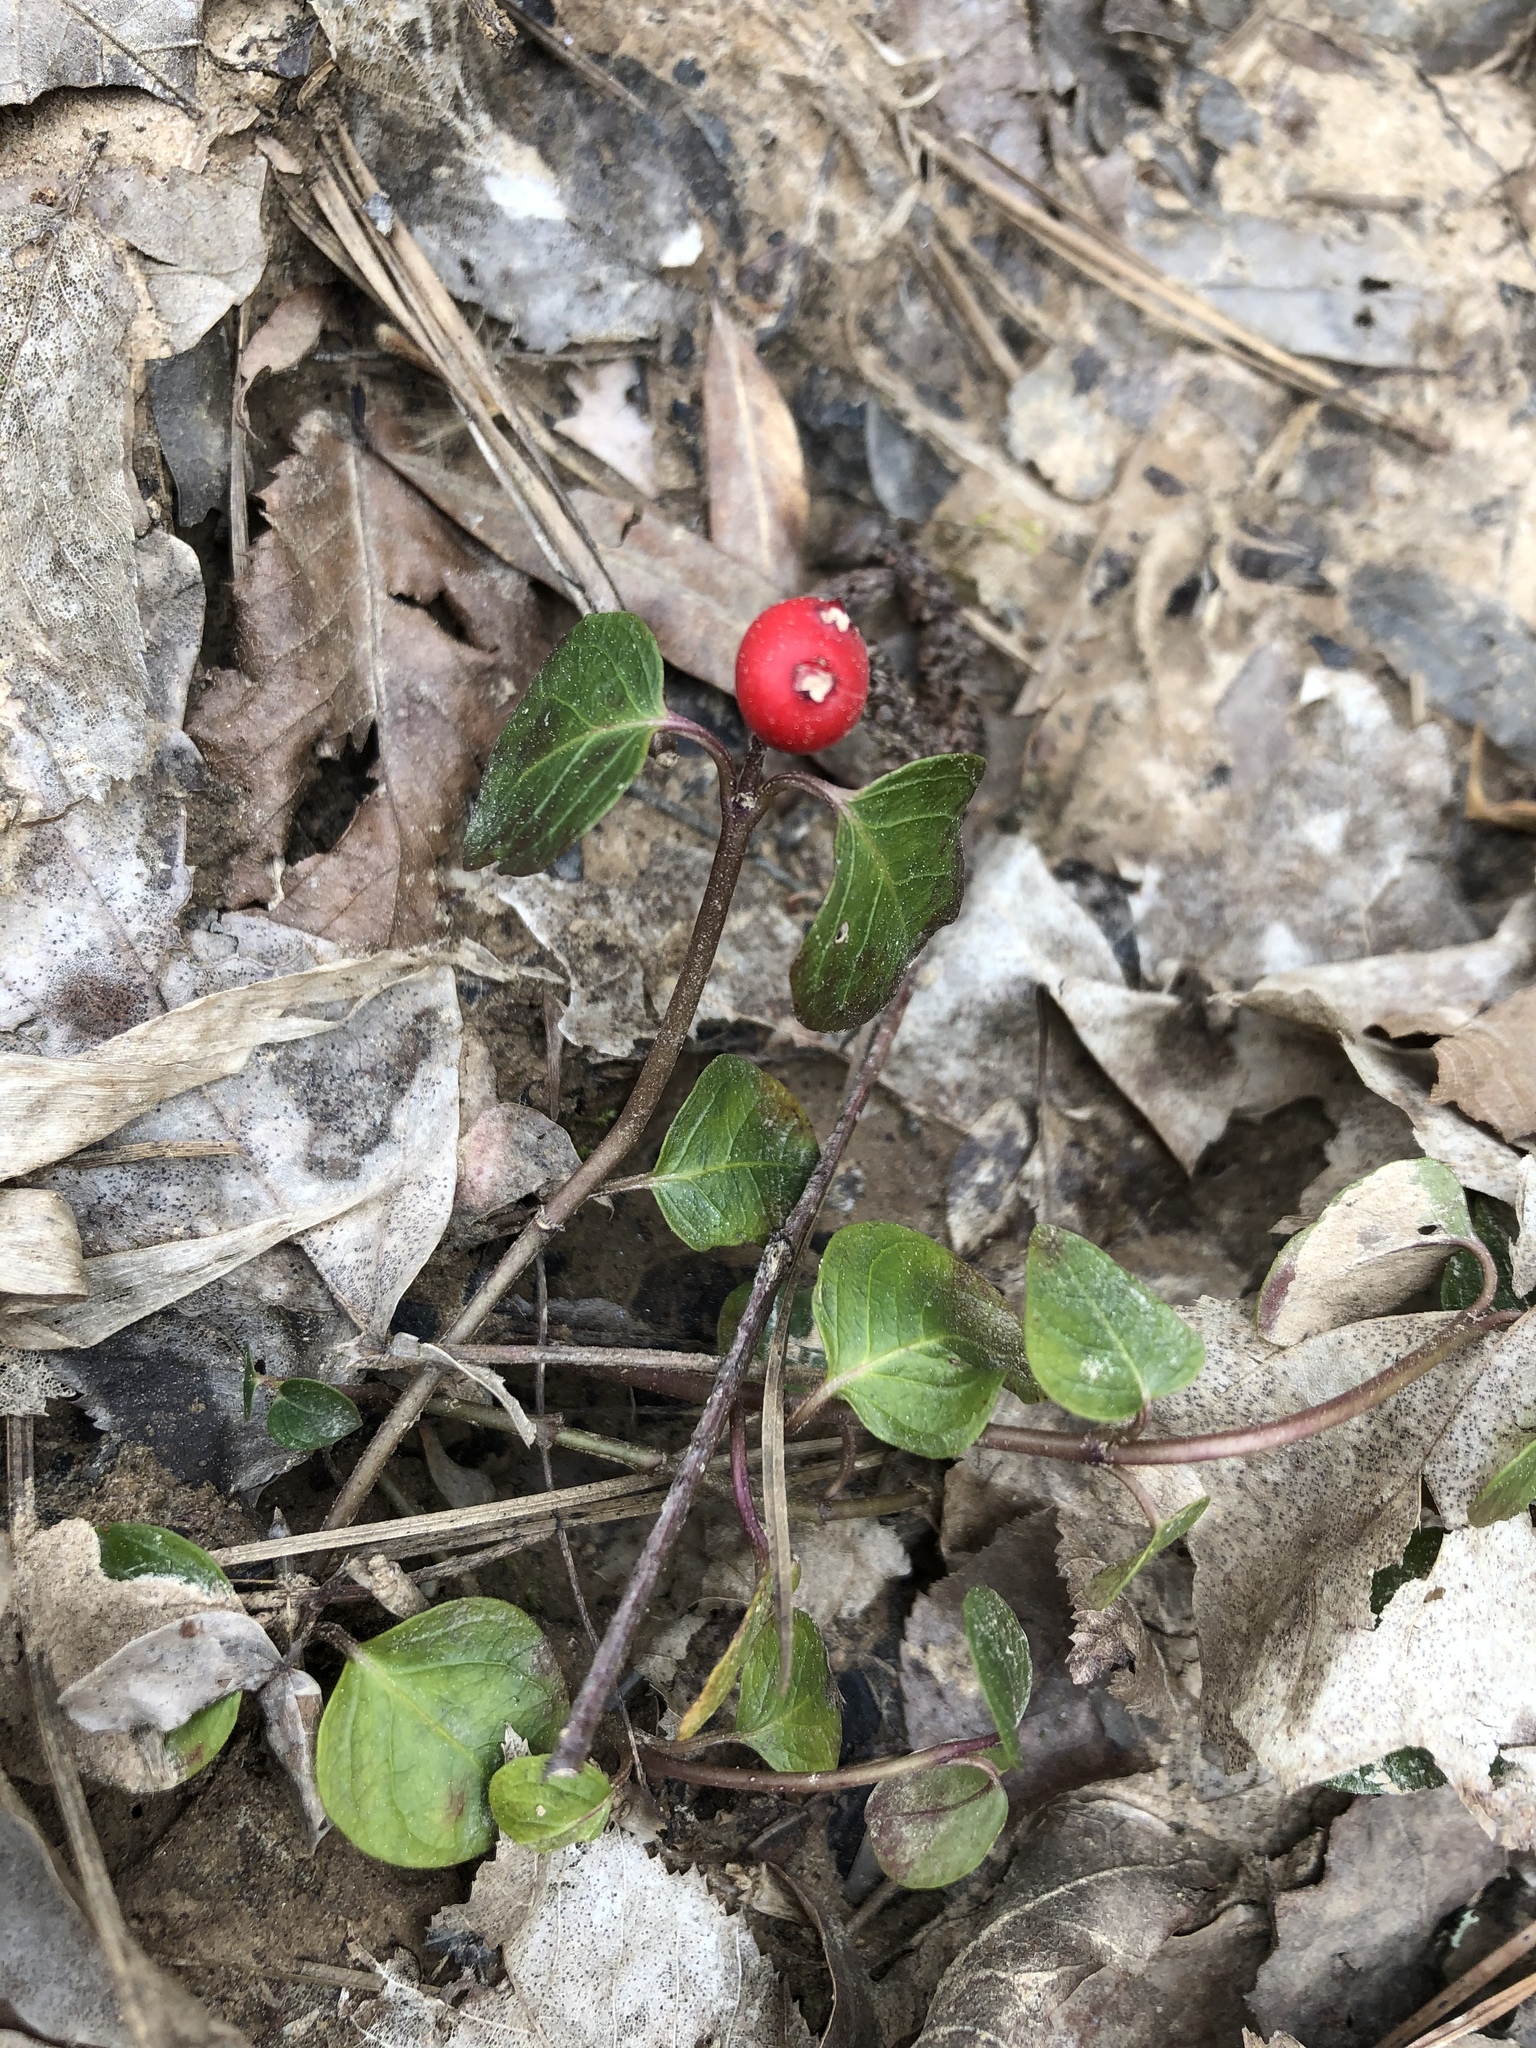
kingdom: Plantae
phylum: Tracheophyta
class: Magnoliopsida
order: Gentianales
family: Rubiaceae
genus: Mitchella
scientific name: Mitchella repens
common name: Partridge-berry
